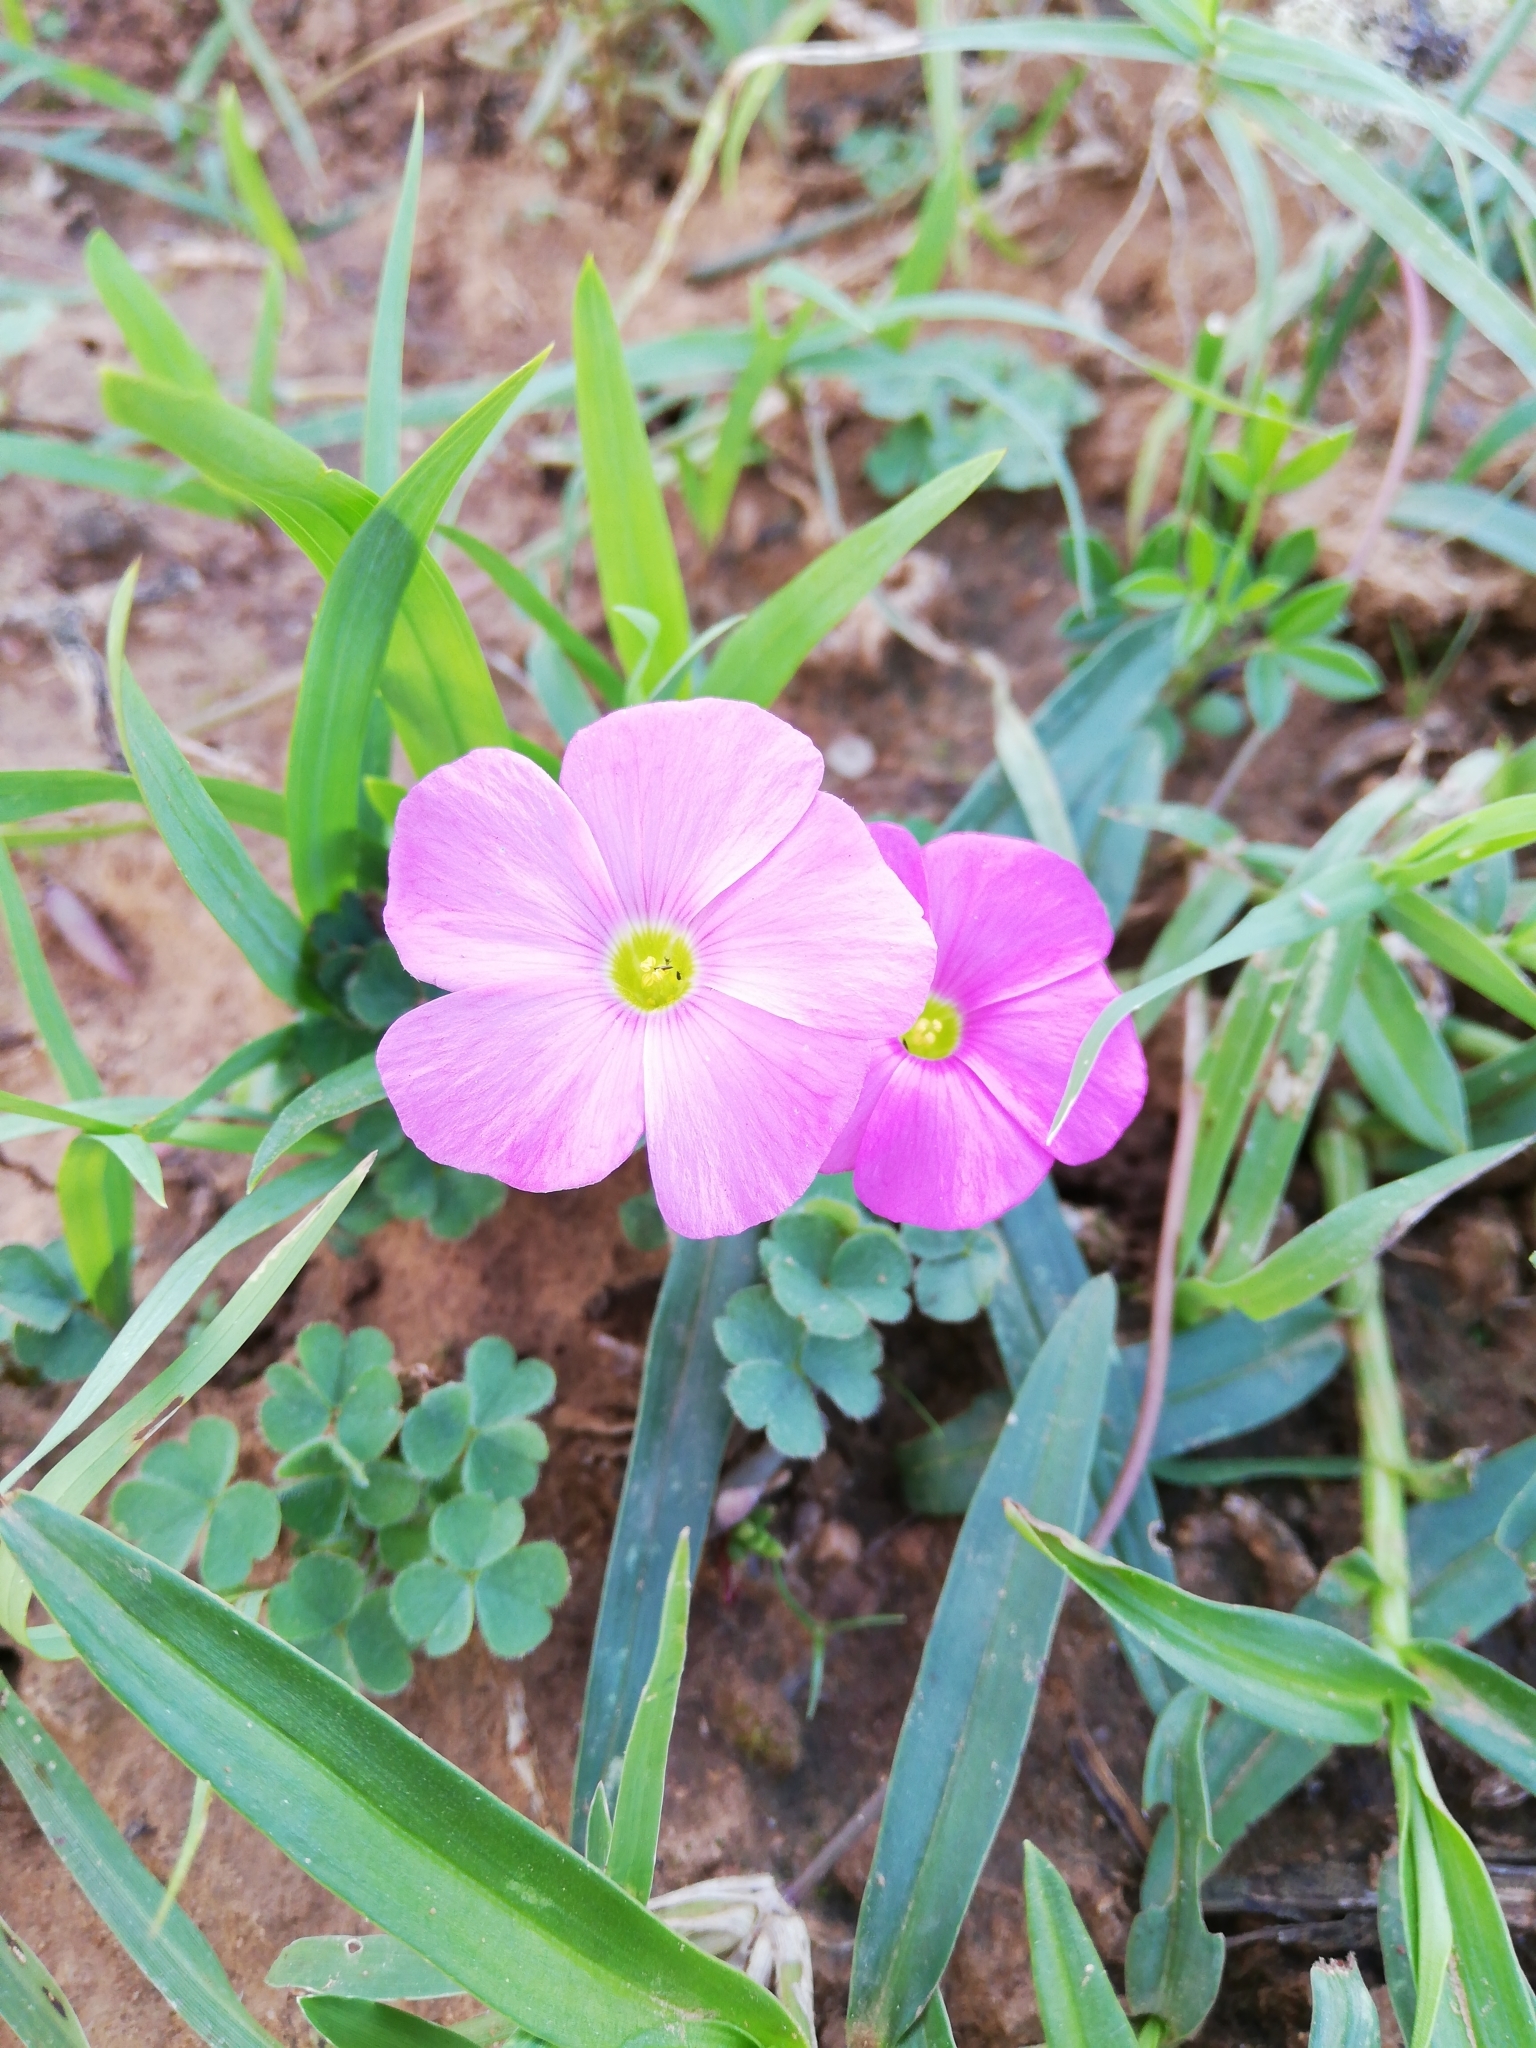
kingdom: Plantae
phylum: Tracheophyta
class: Magnoliopsida
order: Oxalidales
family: Oxalidaceae
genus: Oxalis
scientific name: Oxalis imbricata
